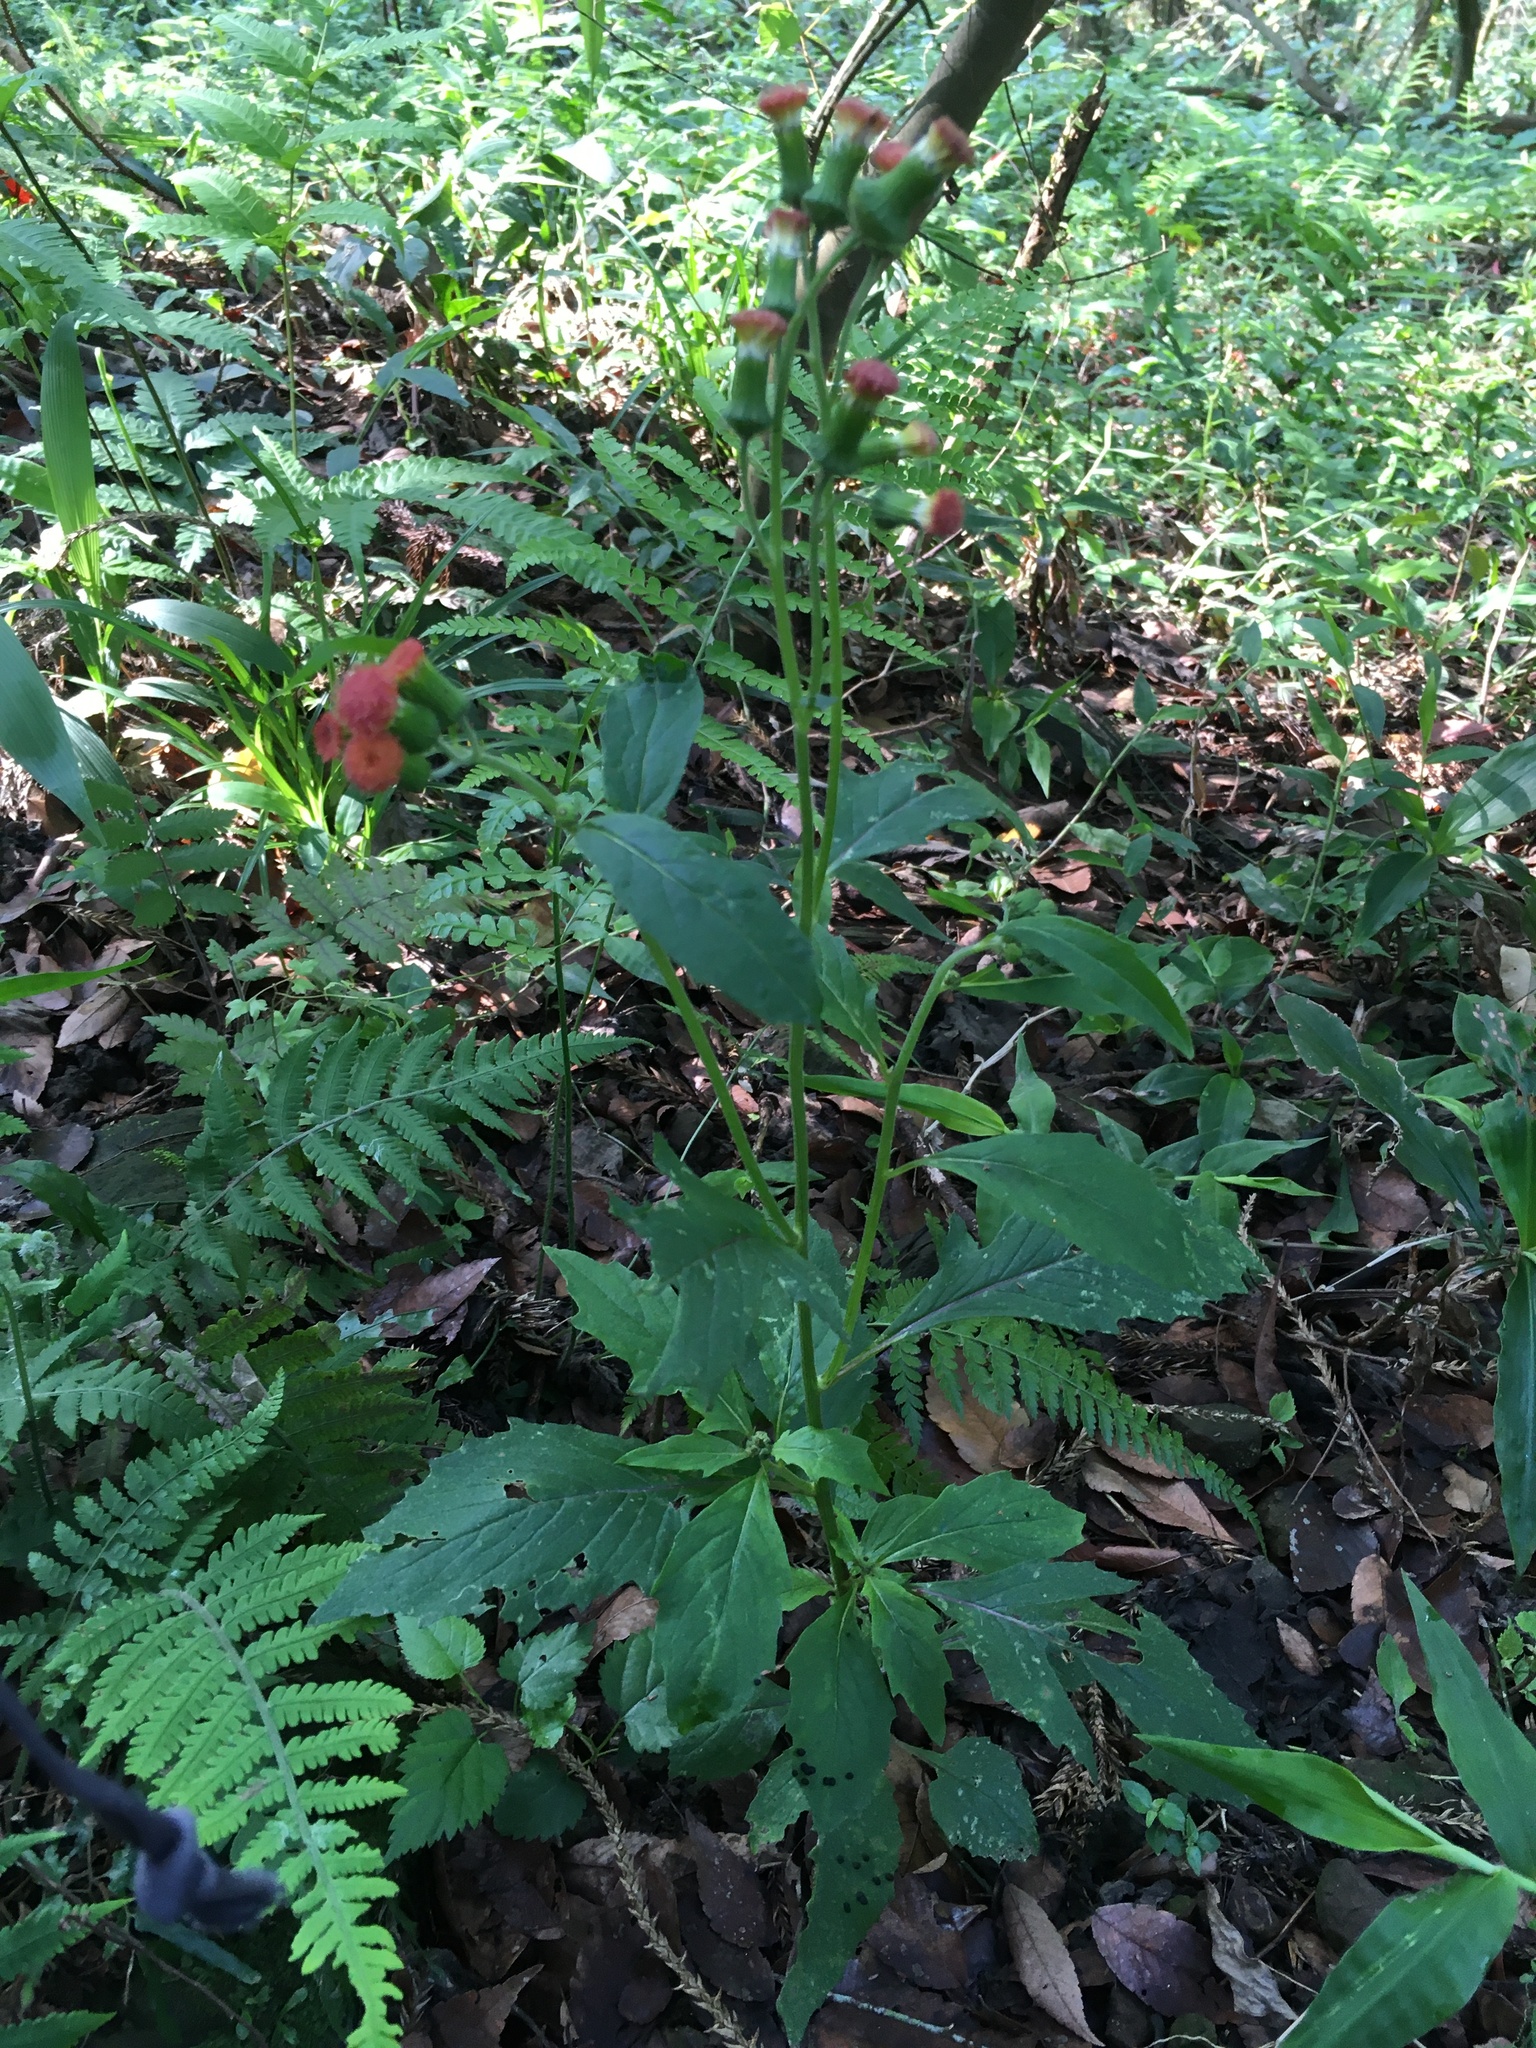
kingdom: Plantae
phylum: Tracheophyta
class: Magnoliopsida
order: Asterales
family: Asteraceae
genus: Crassocephalum
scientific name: Crassocephalum crepidioides
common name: Redflower ragleaf
